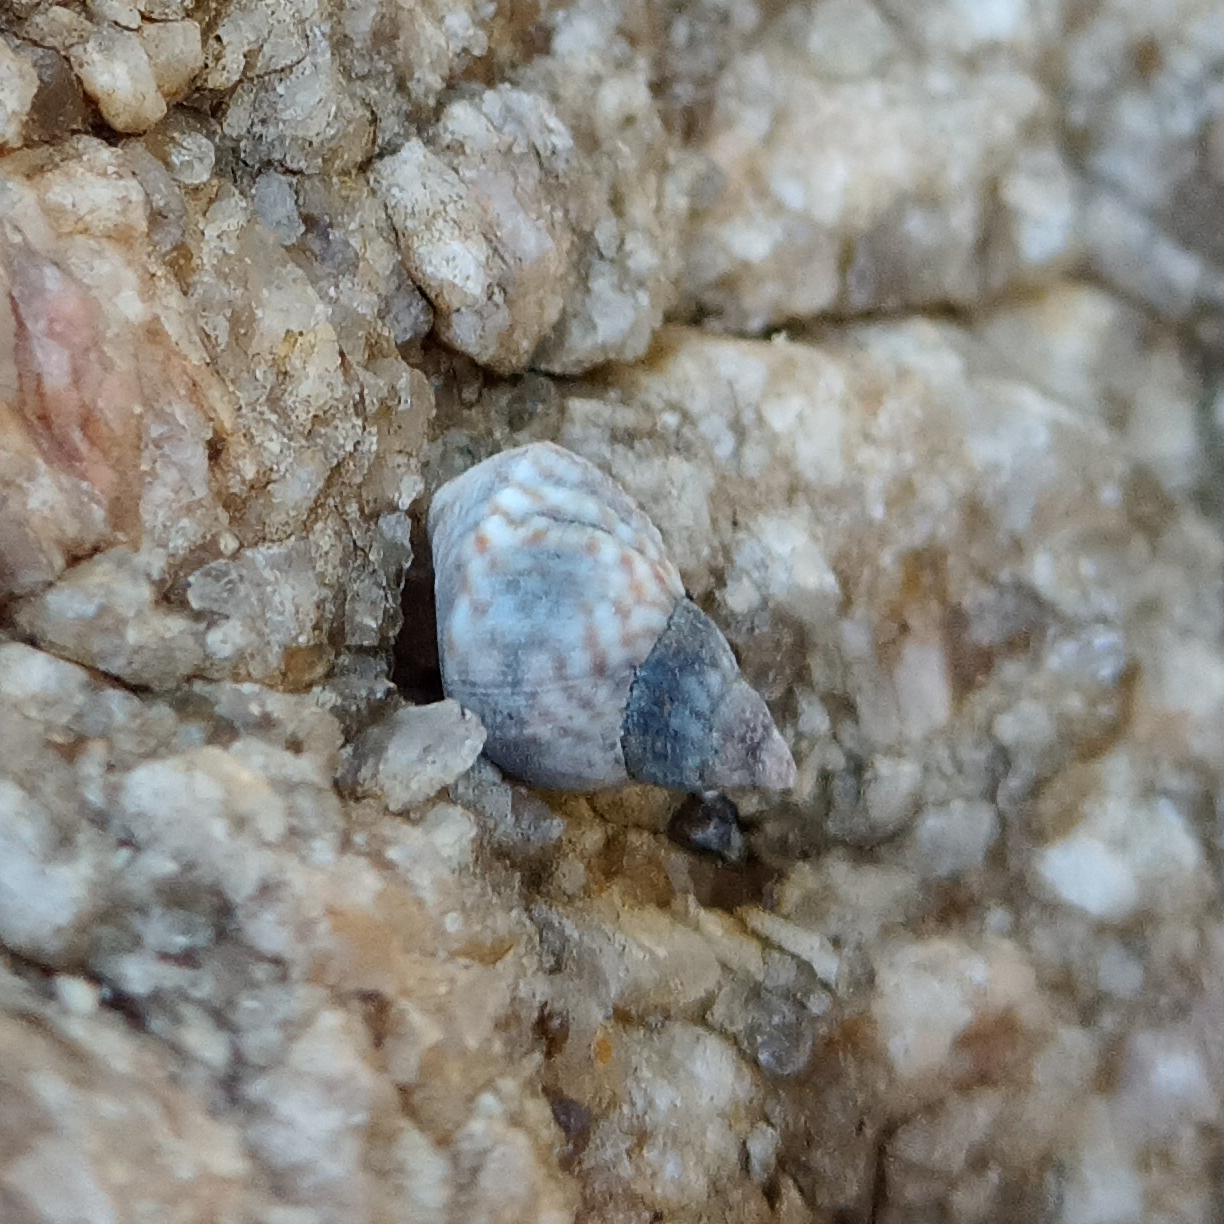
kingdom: Animalia
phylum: Mollusca
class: Gastropoda
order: Littorinimorpha
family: Littorinidae
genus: Echinolittorina
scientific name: Echinolittorina lineolata
